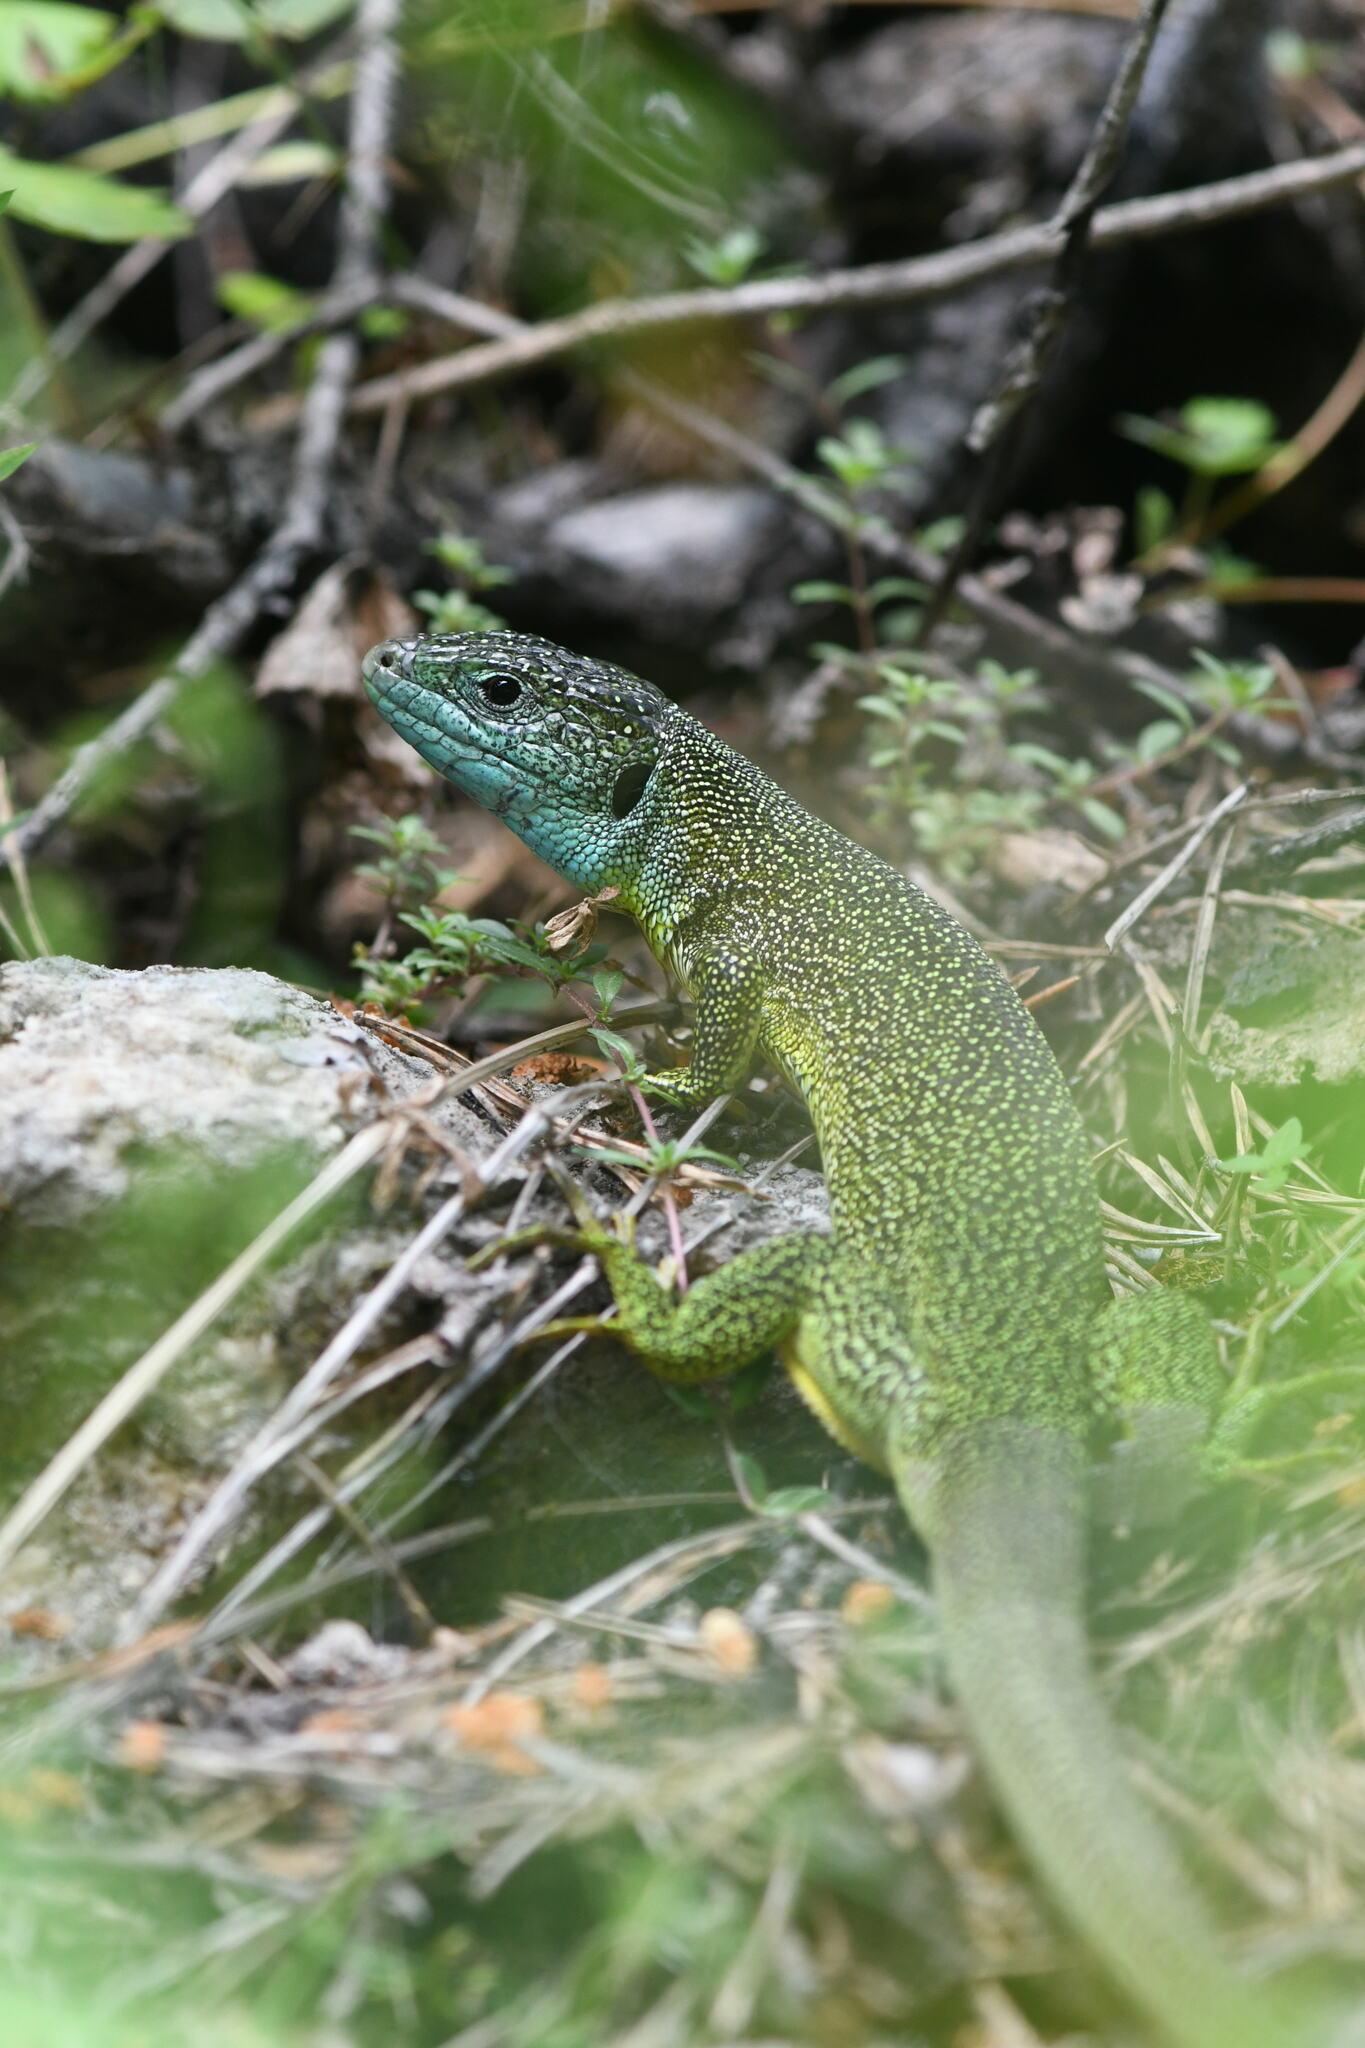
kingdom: Animalia
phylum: Chordata
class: Squamata
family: Lacertidae
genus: Lacerta
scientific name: Lacerta bilineata
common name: Western green lizard
